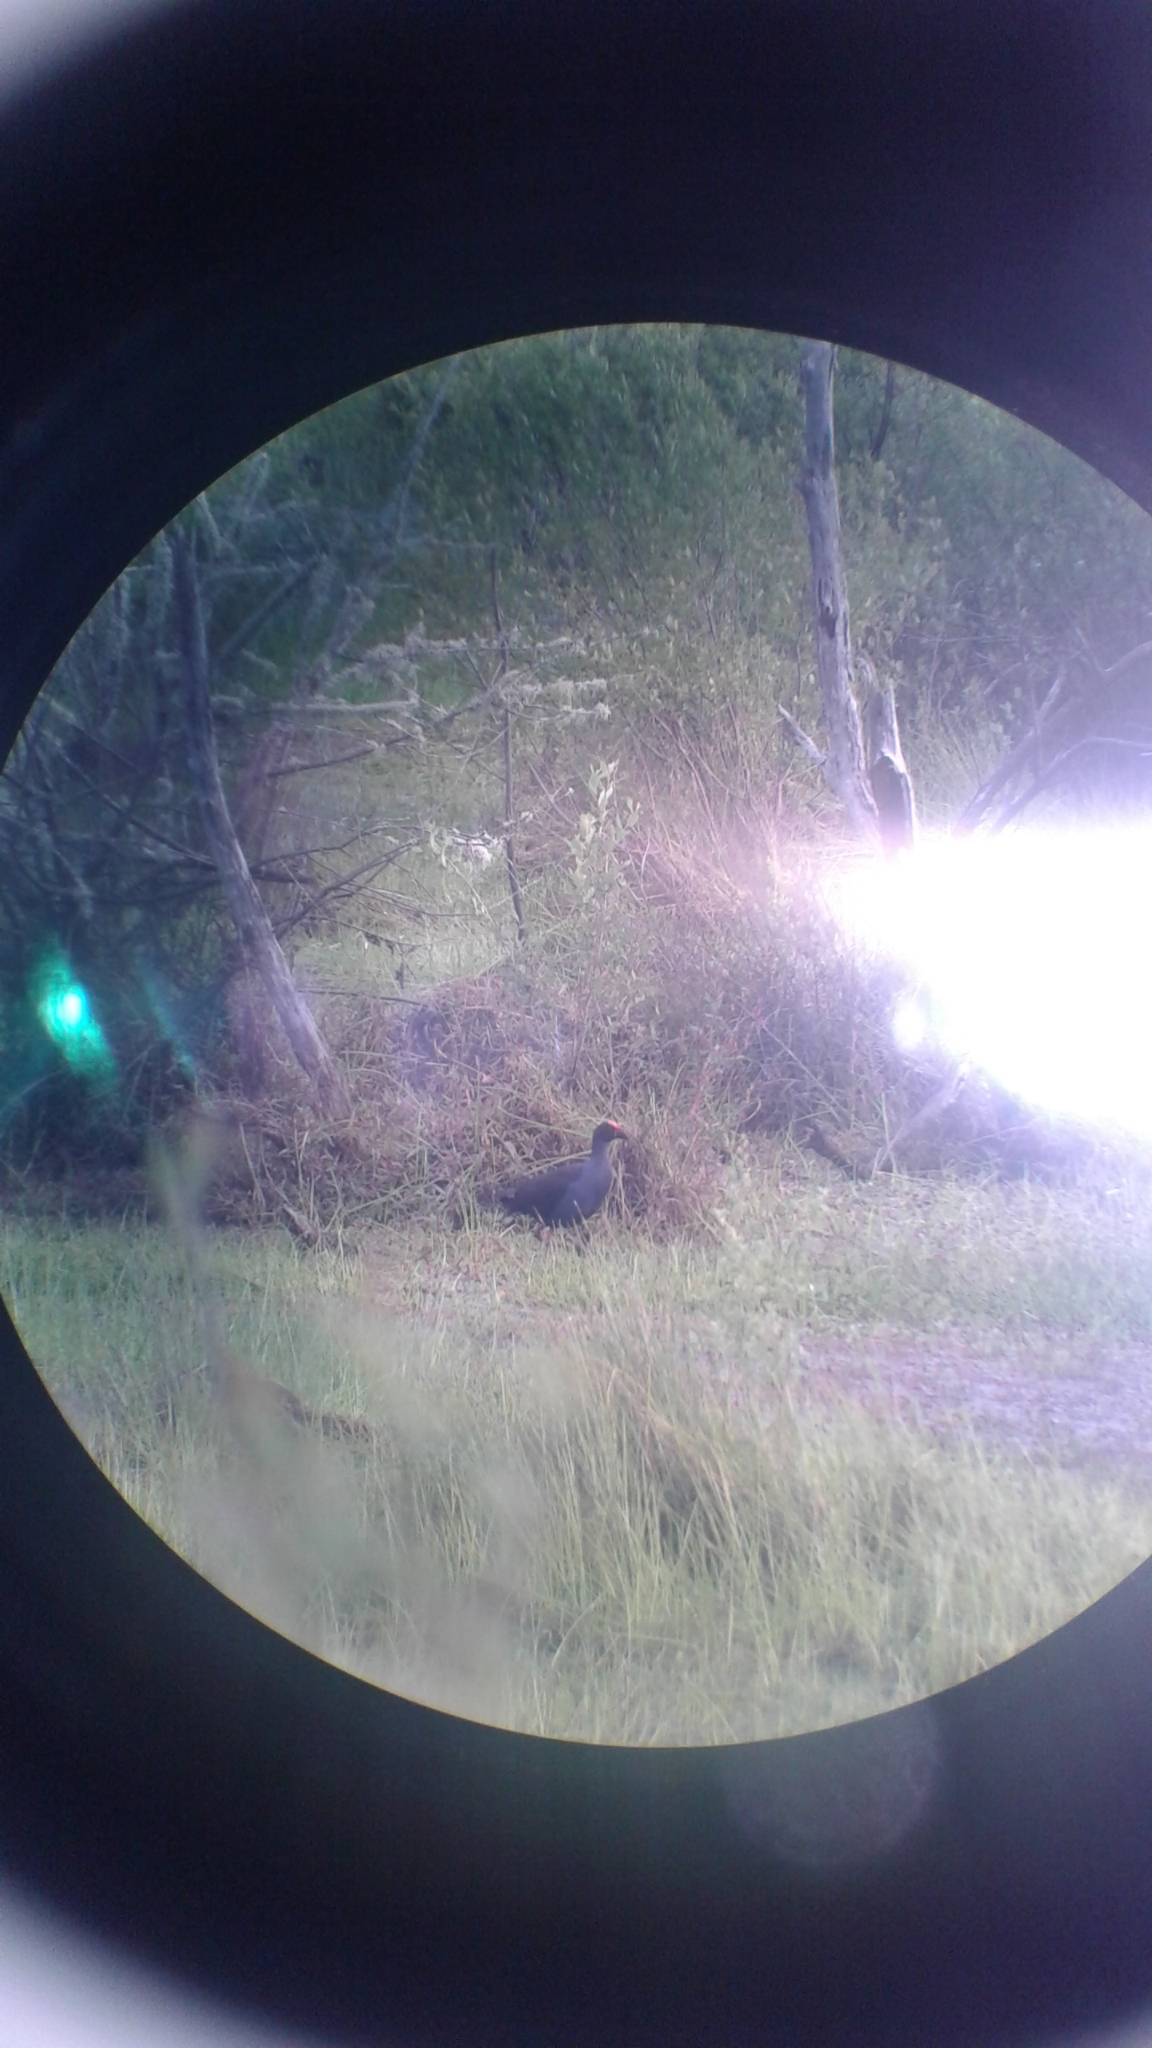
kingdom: Animalia
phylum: Chordata
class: Aves
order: Gruiformes
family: Rallidae
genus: Porphyrio
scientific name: Porphyrio melanotus
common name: Australasian swamphen
